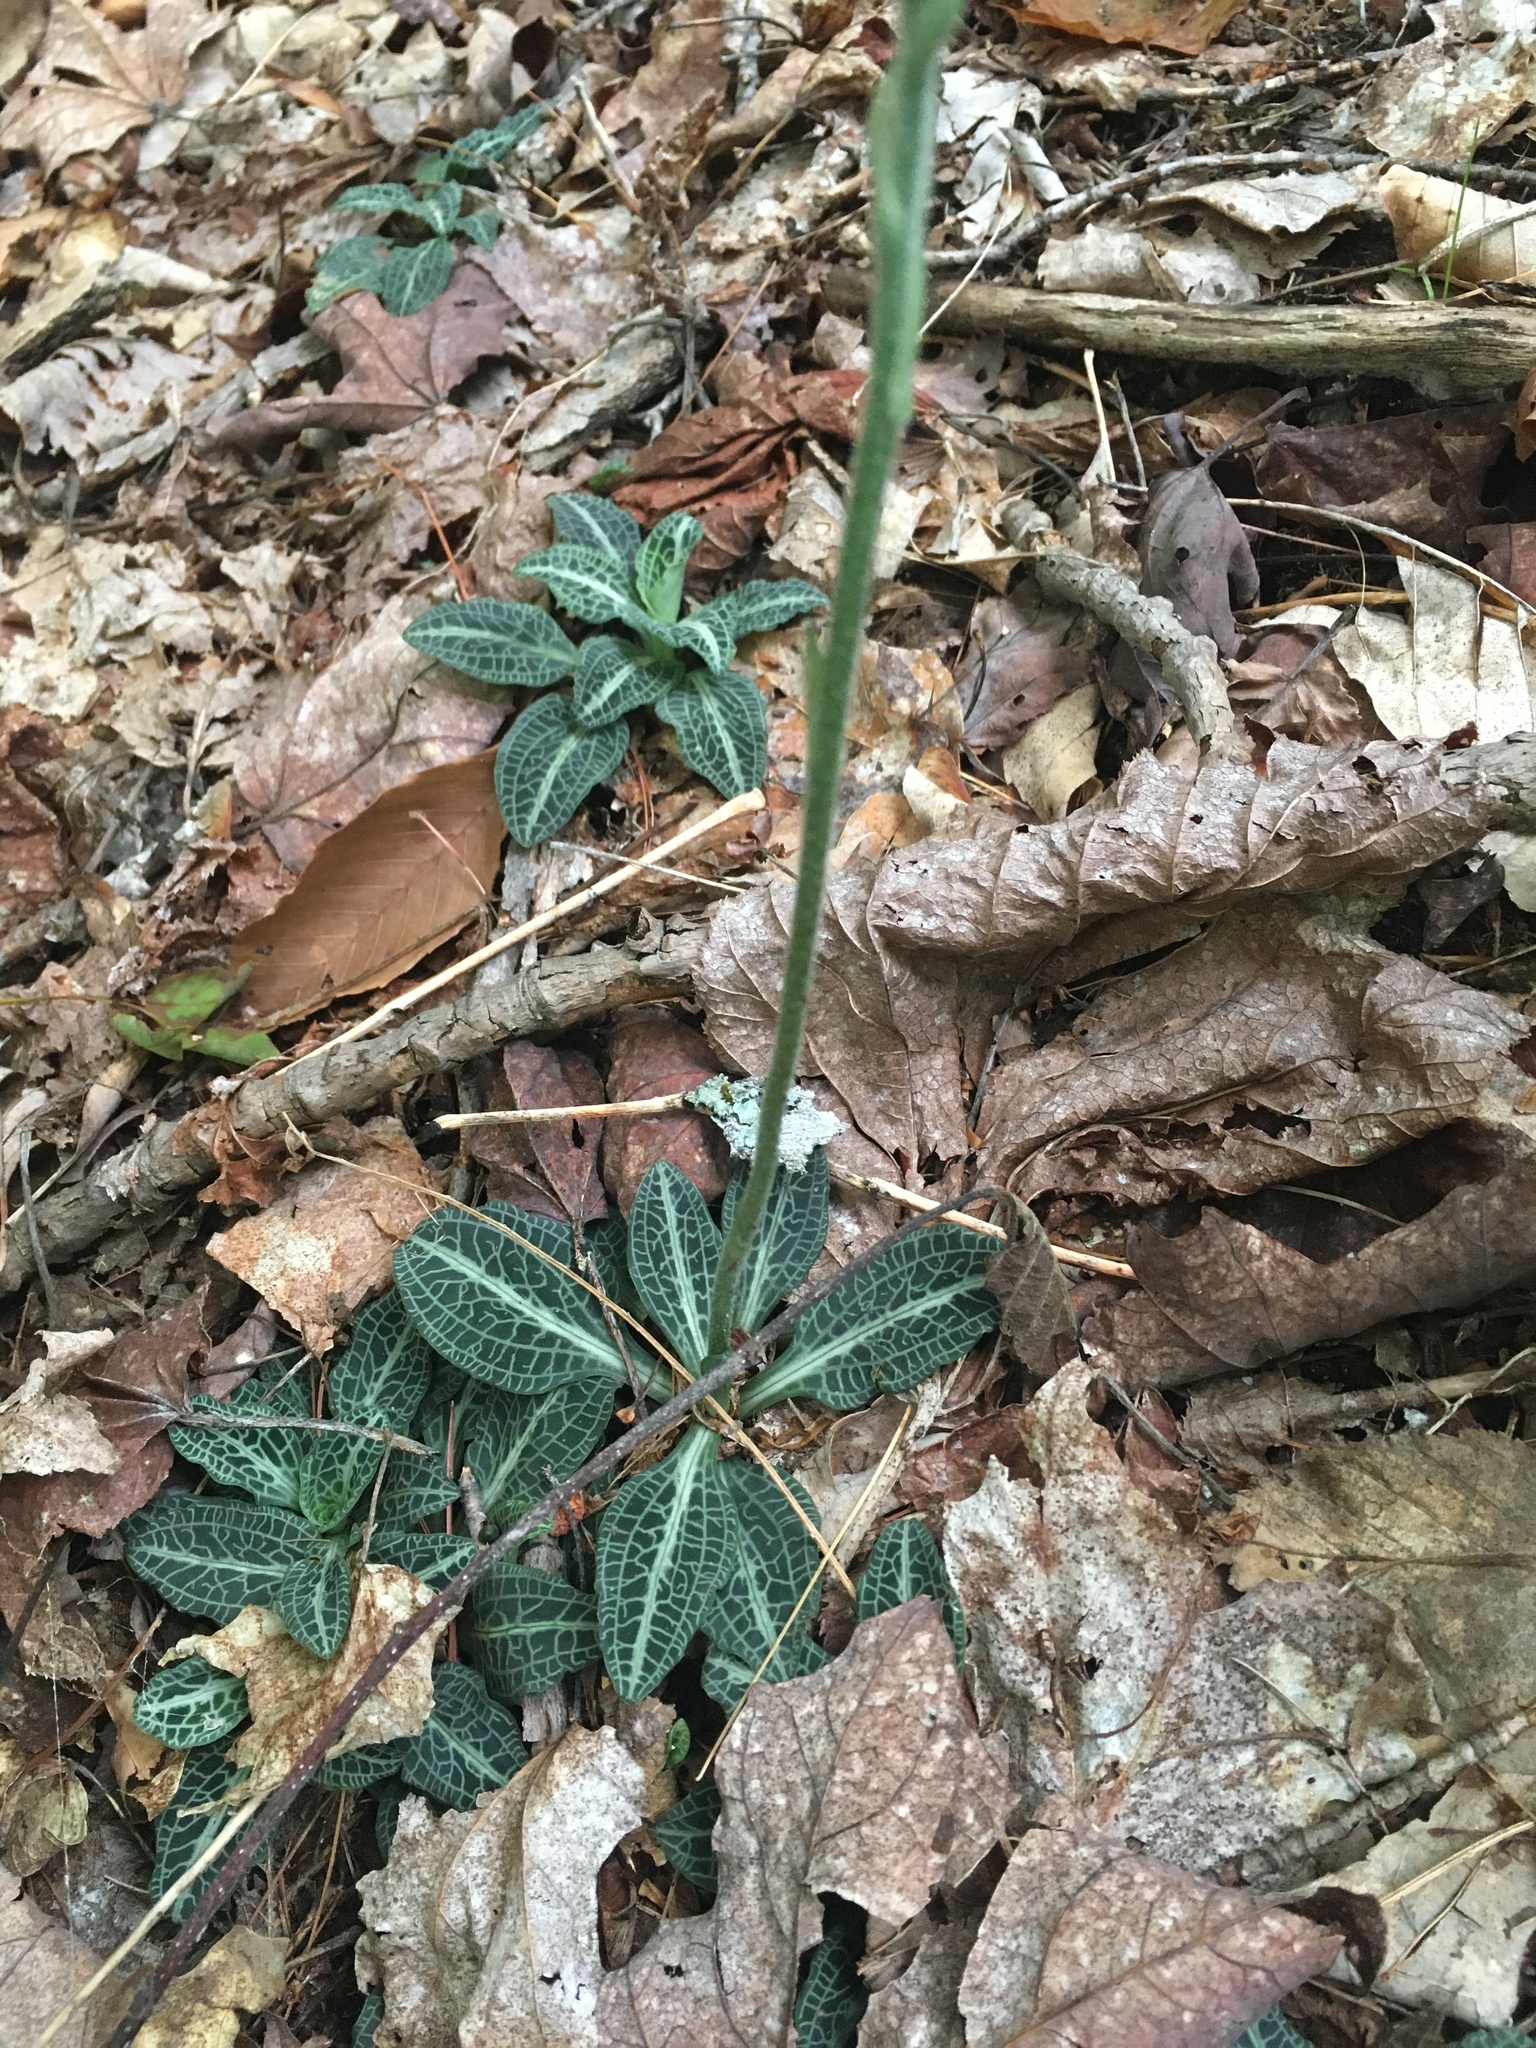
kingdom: Plantae
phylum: Tracheophyta
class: Liliopsida
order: Asparagales
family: Orchidaceae
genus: Goodyera
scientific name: Goodyera pubescens
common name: Downy rattlesnake-plantain
